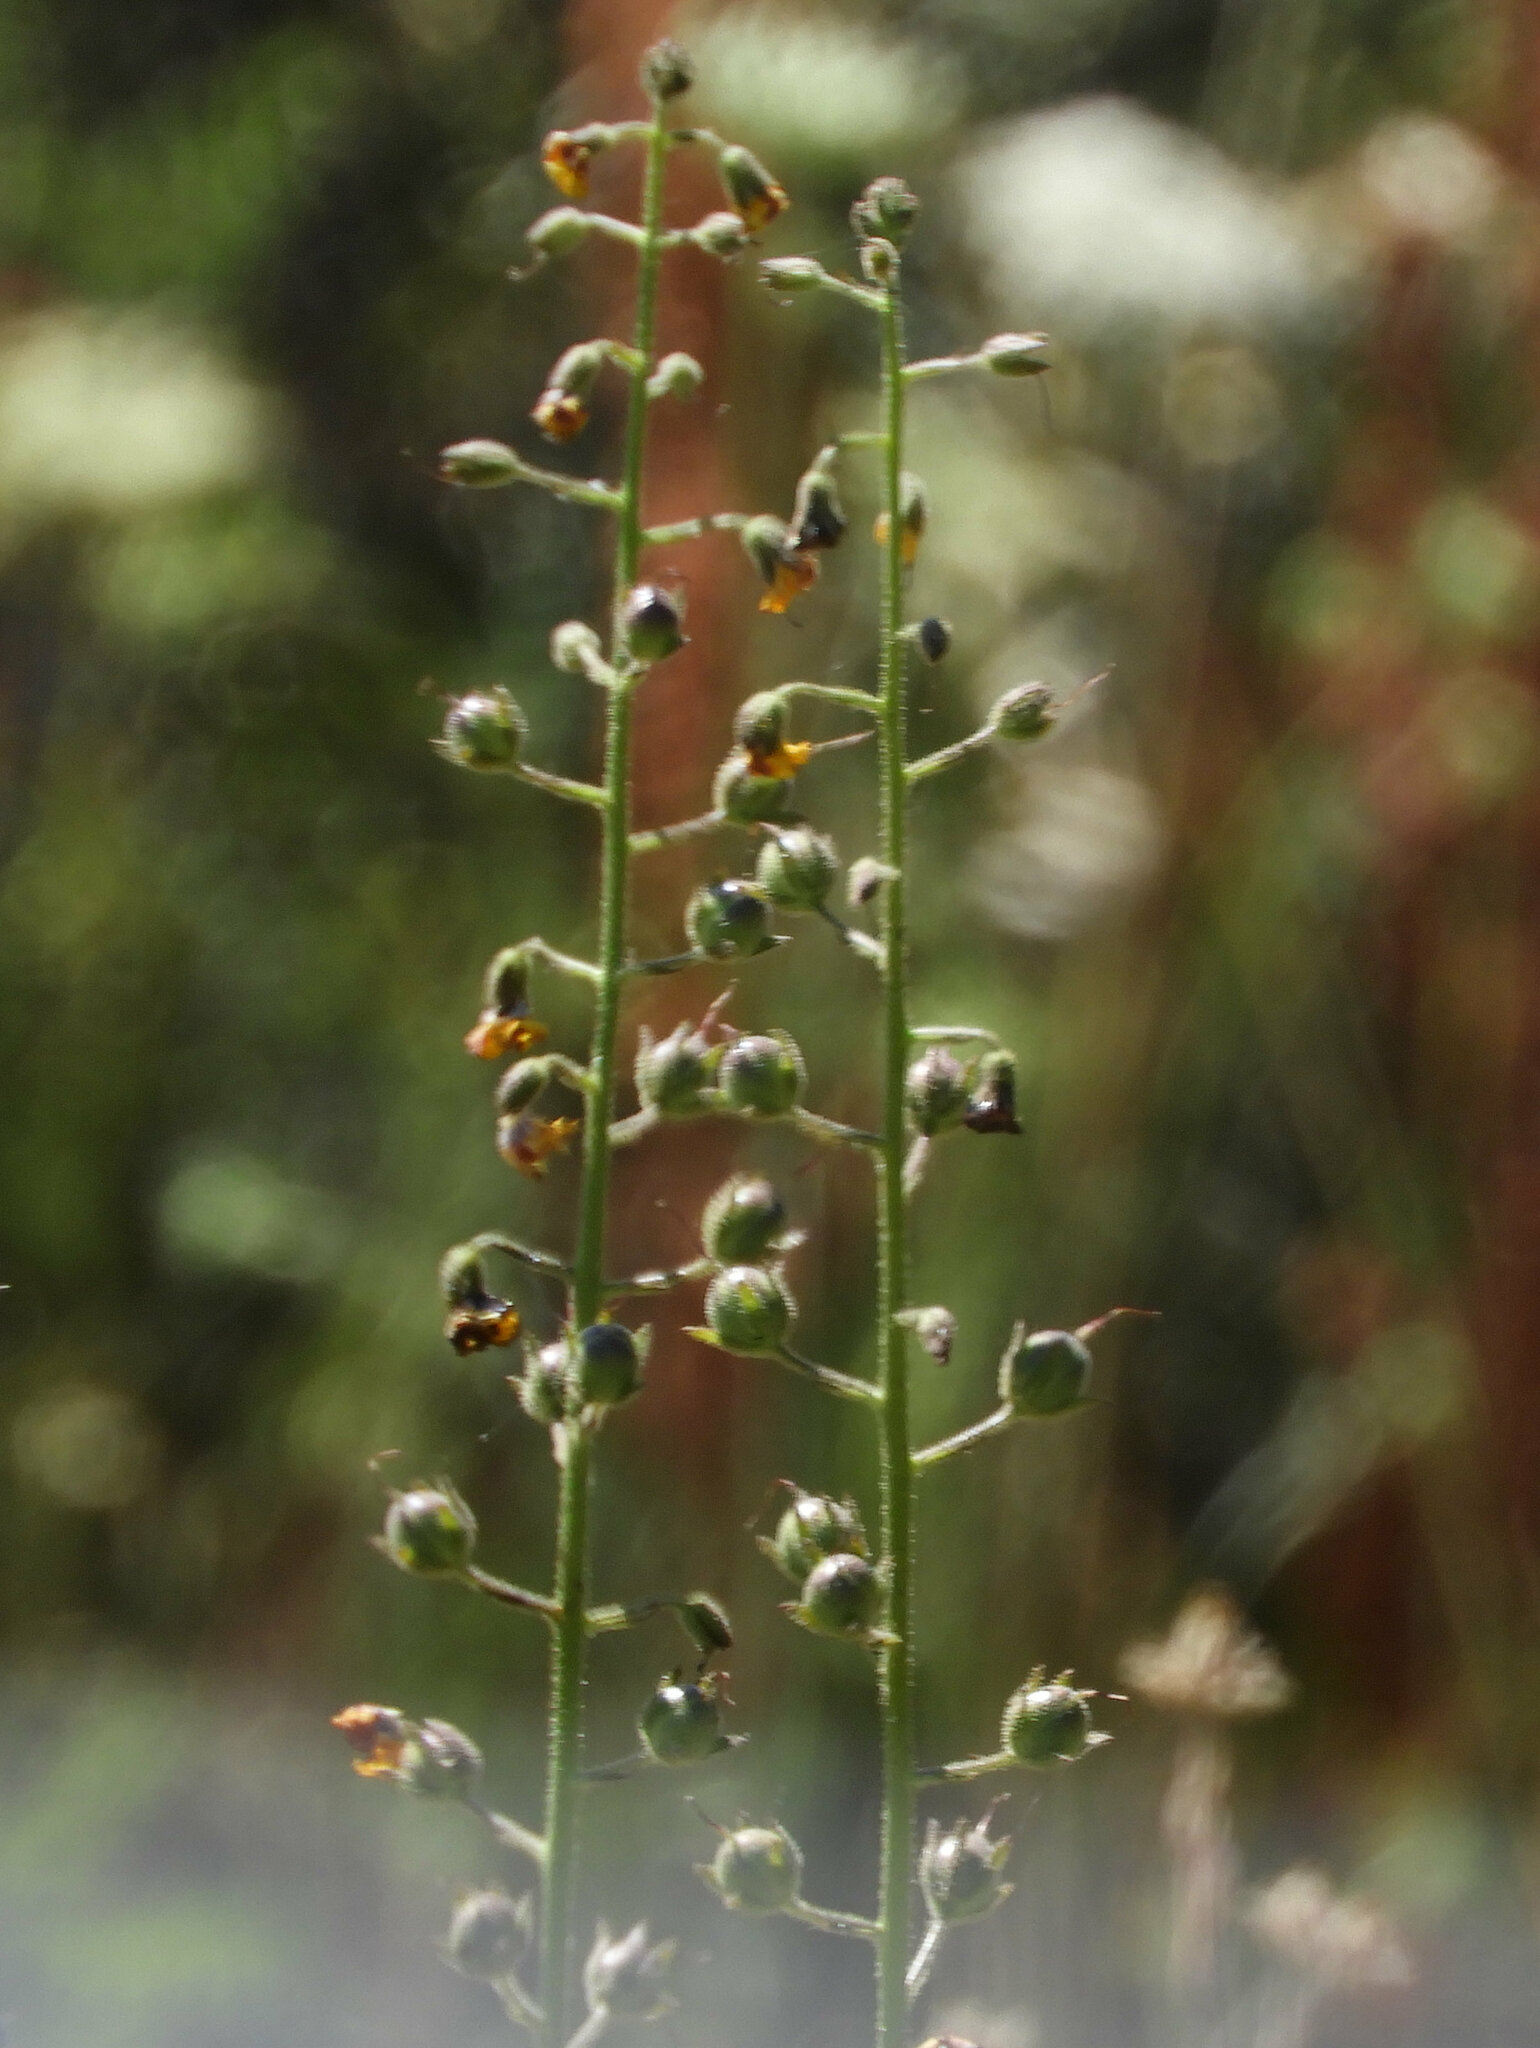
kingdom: Plantae
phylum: Tracheophyta
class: Magnoliopsida
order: Lamiales
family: Scrophulariaceae
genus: Verbascum
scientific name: Verbascum blattaria
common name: Moth mullein
